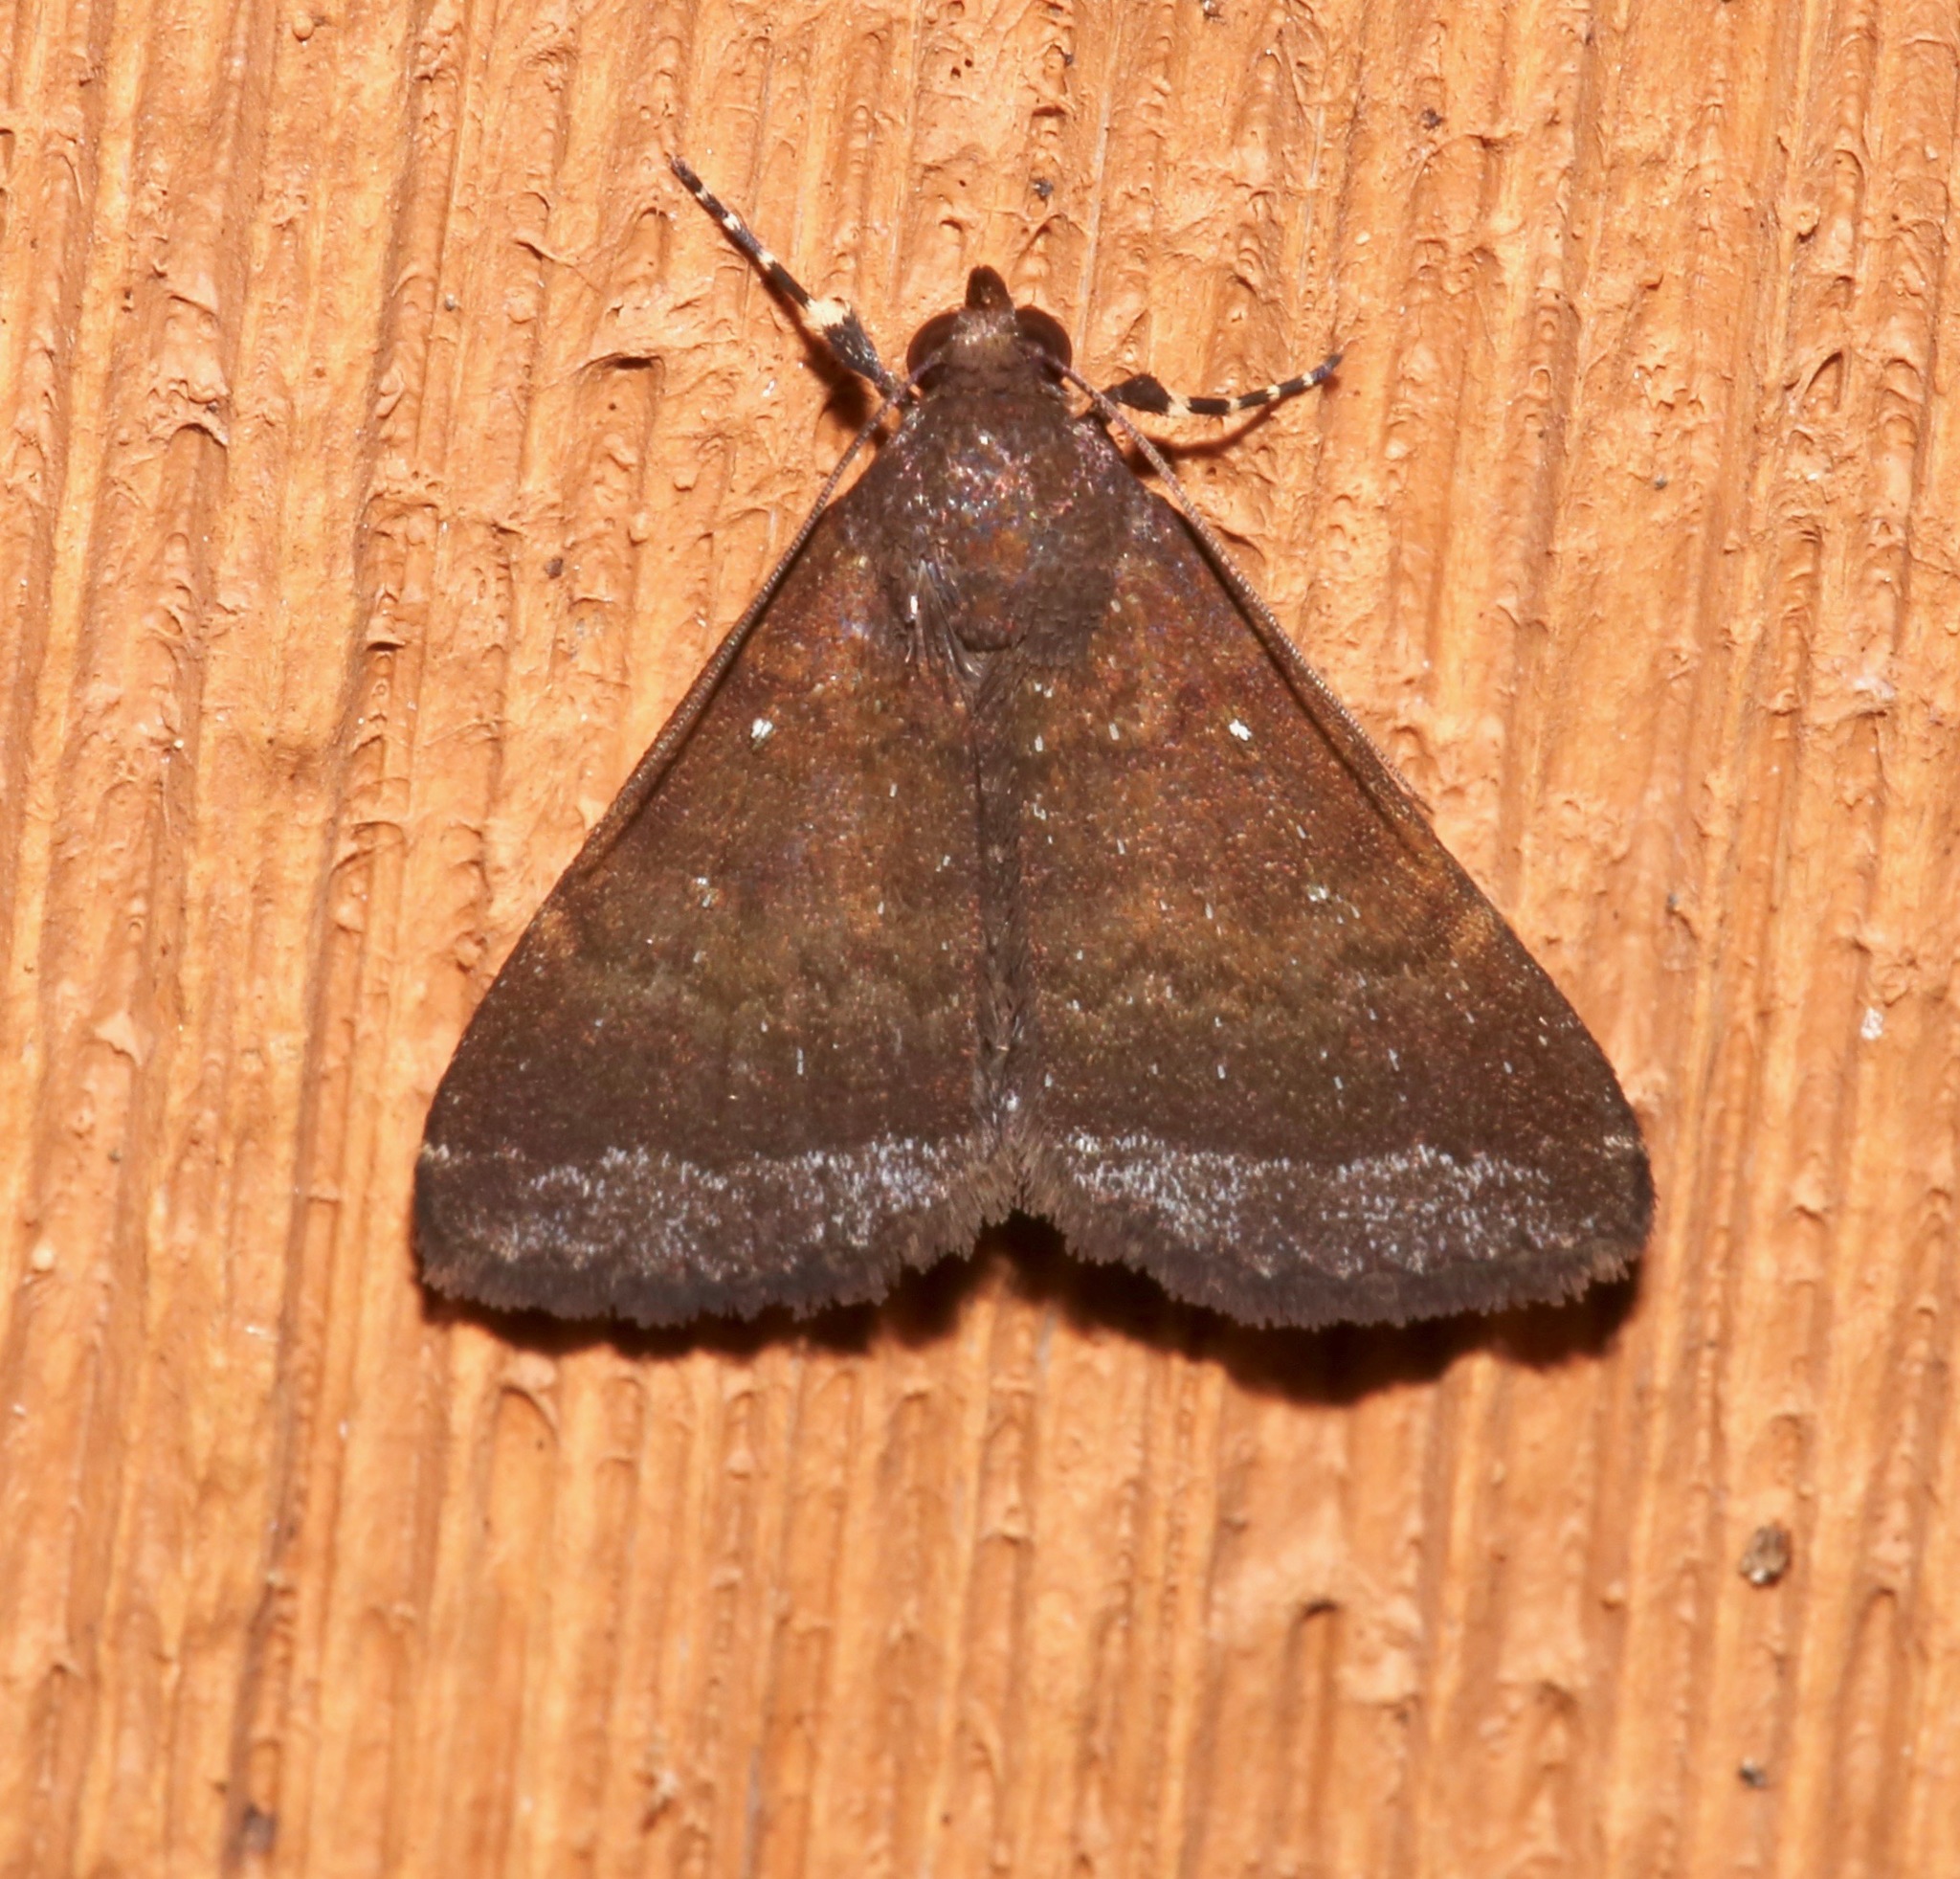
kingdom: Animalia
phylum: Arthropoda
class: Insecta
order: Lepidoptera
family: Erebidae
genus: Physula
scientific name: Physula albipunctilla
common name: Cutworm moth
